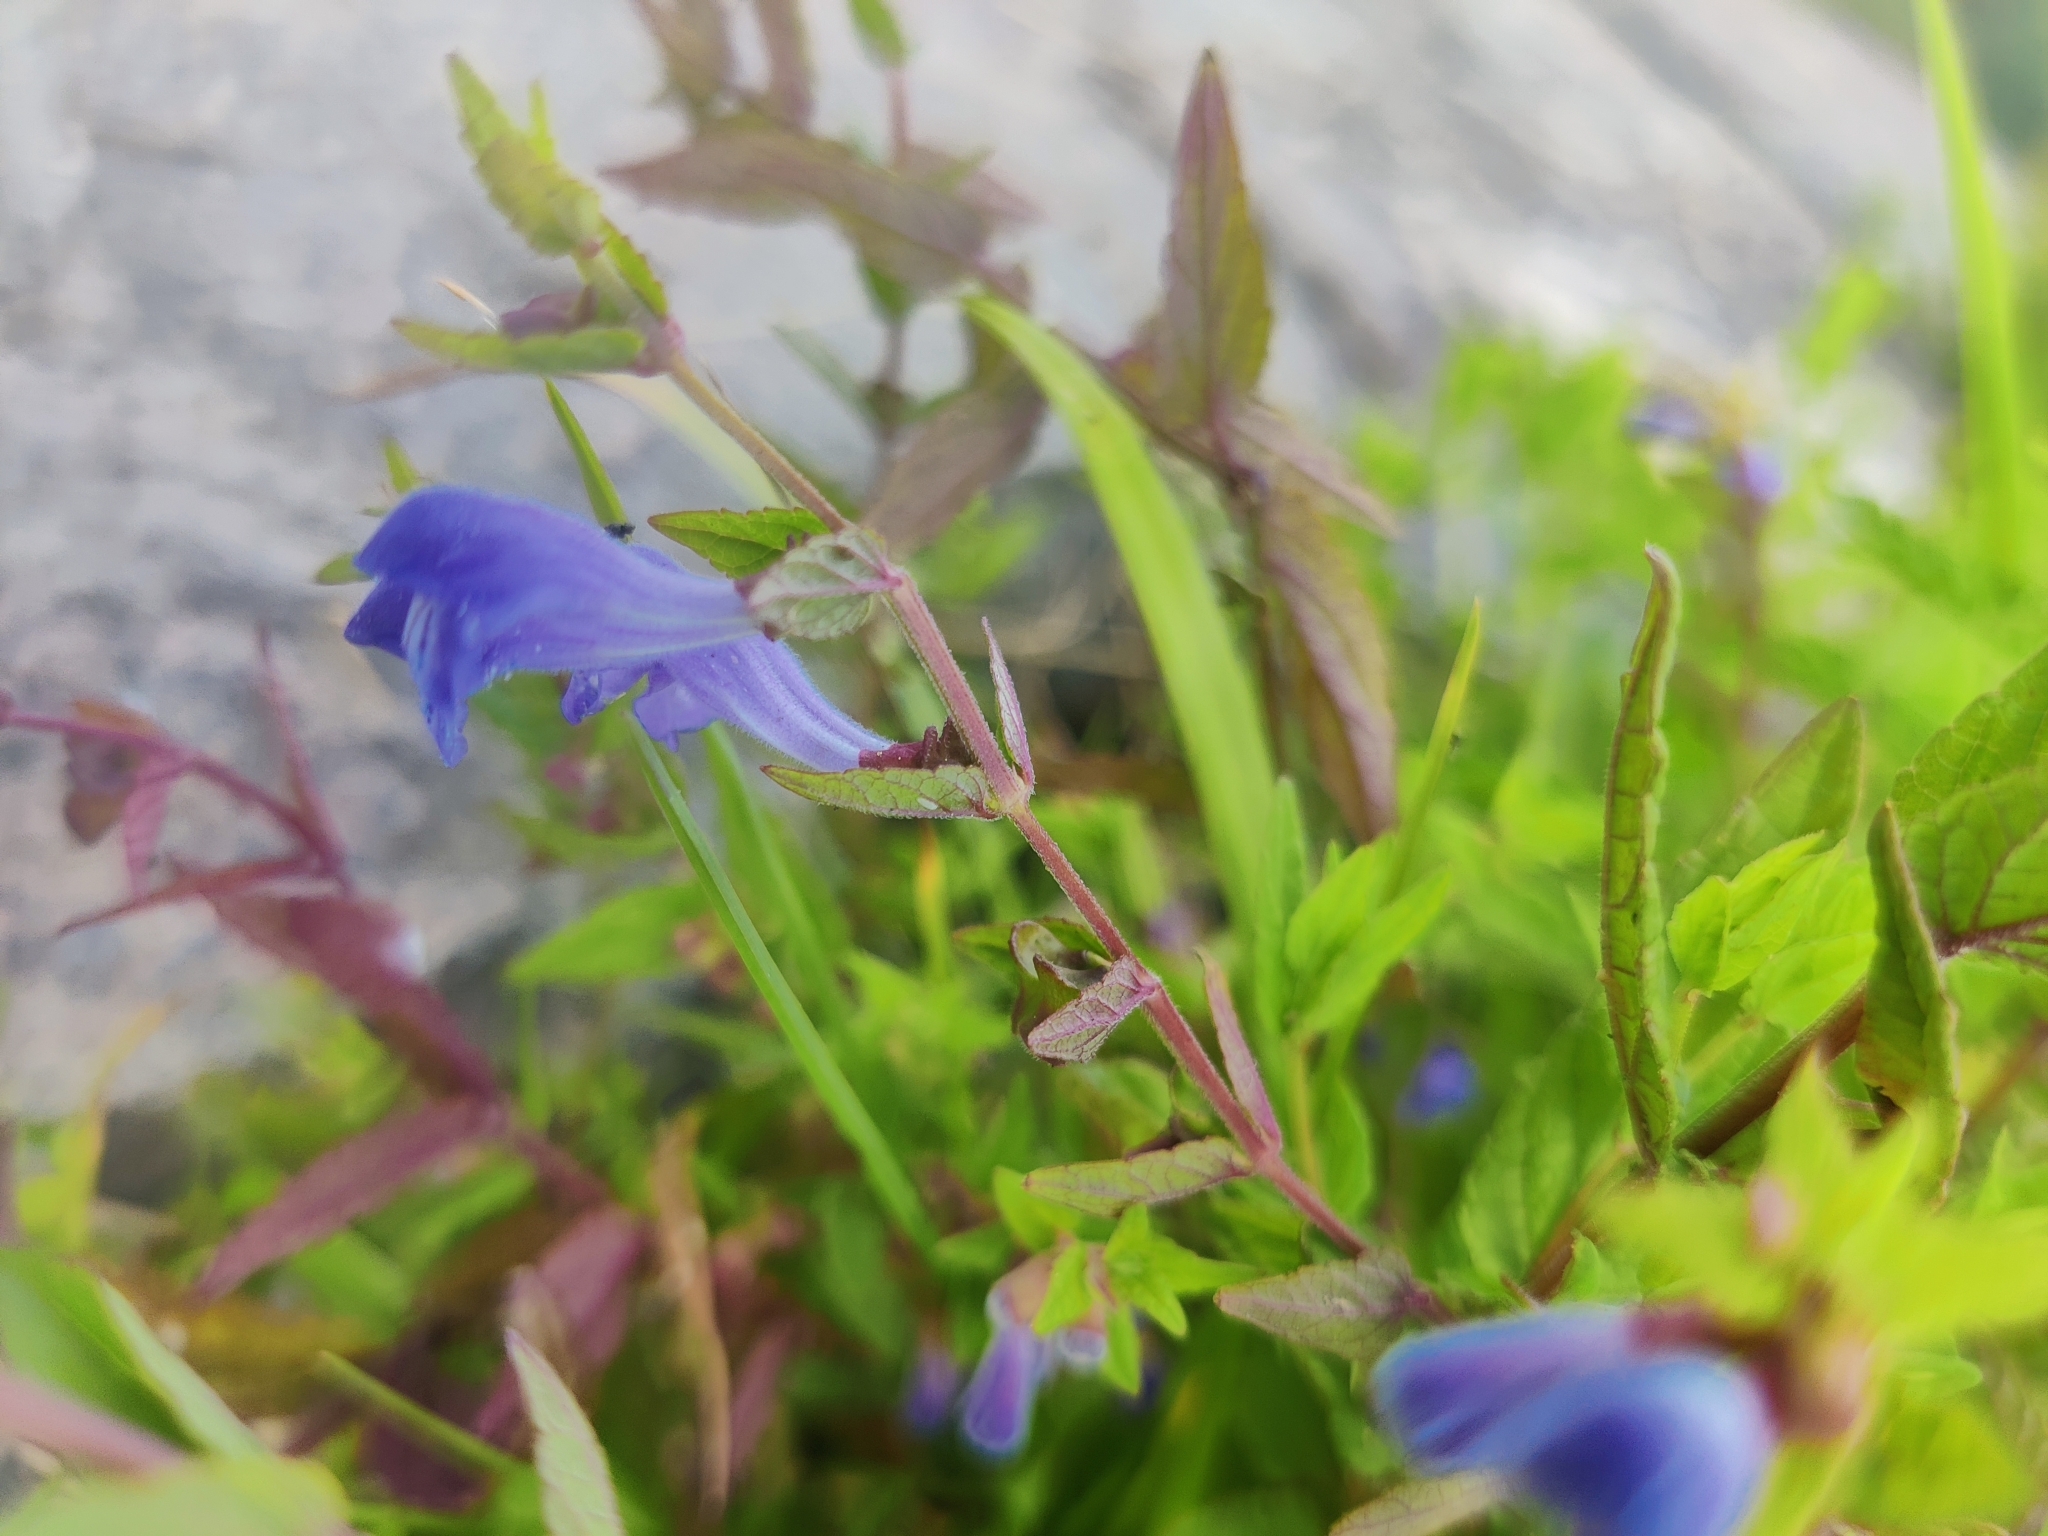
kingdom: Plantae
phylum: Tracheophyta
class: Magnoliopsida
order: Lamiales
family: Lamiaceae
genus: Scutellaria
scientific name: Scutellaria galericulata
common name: Skullcap
